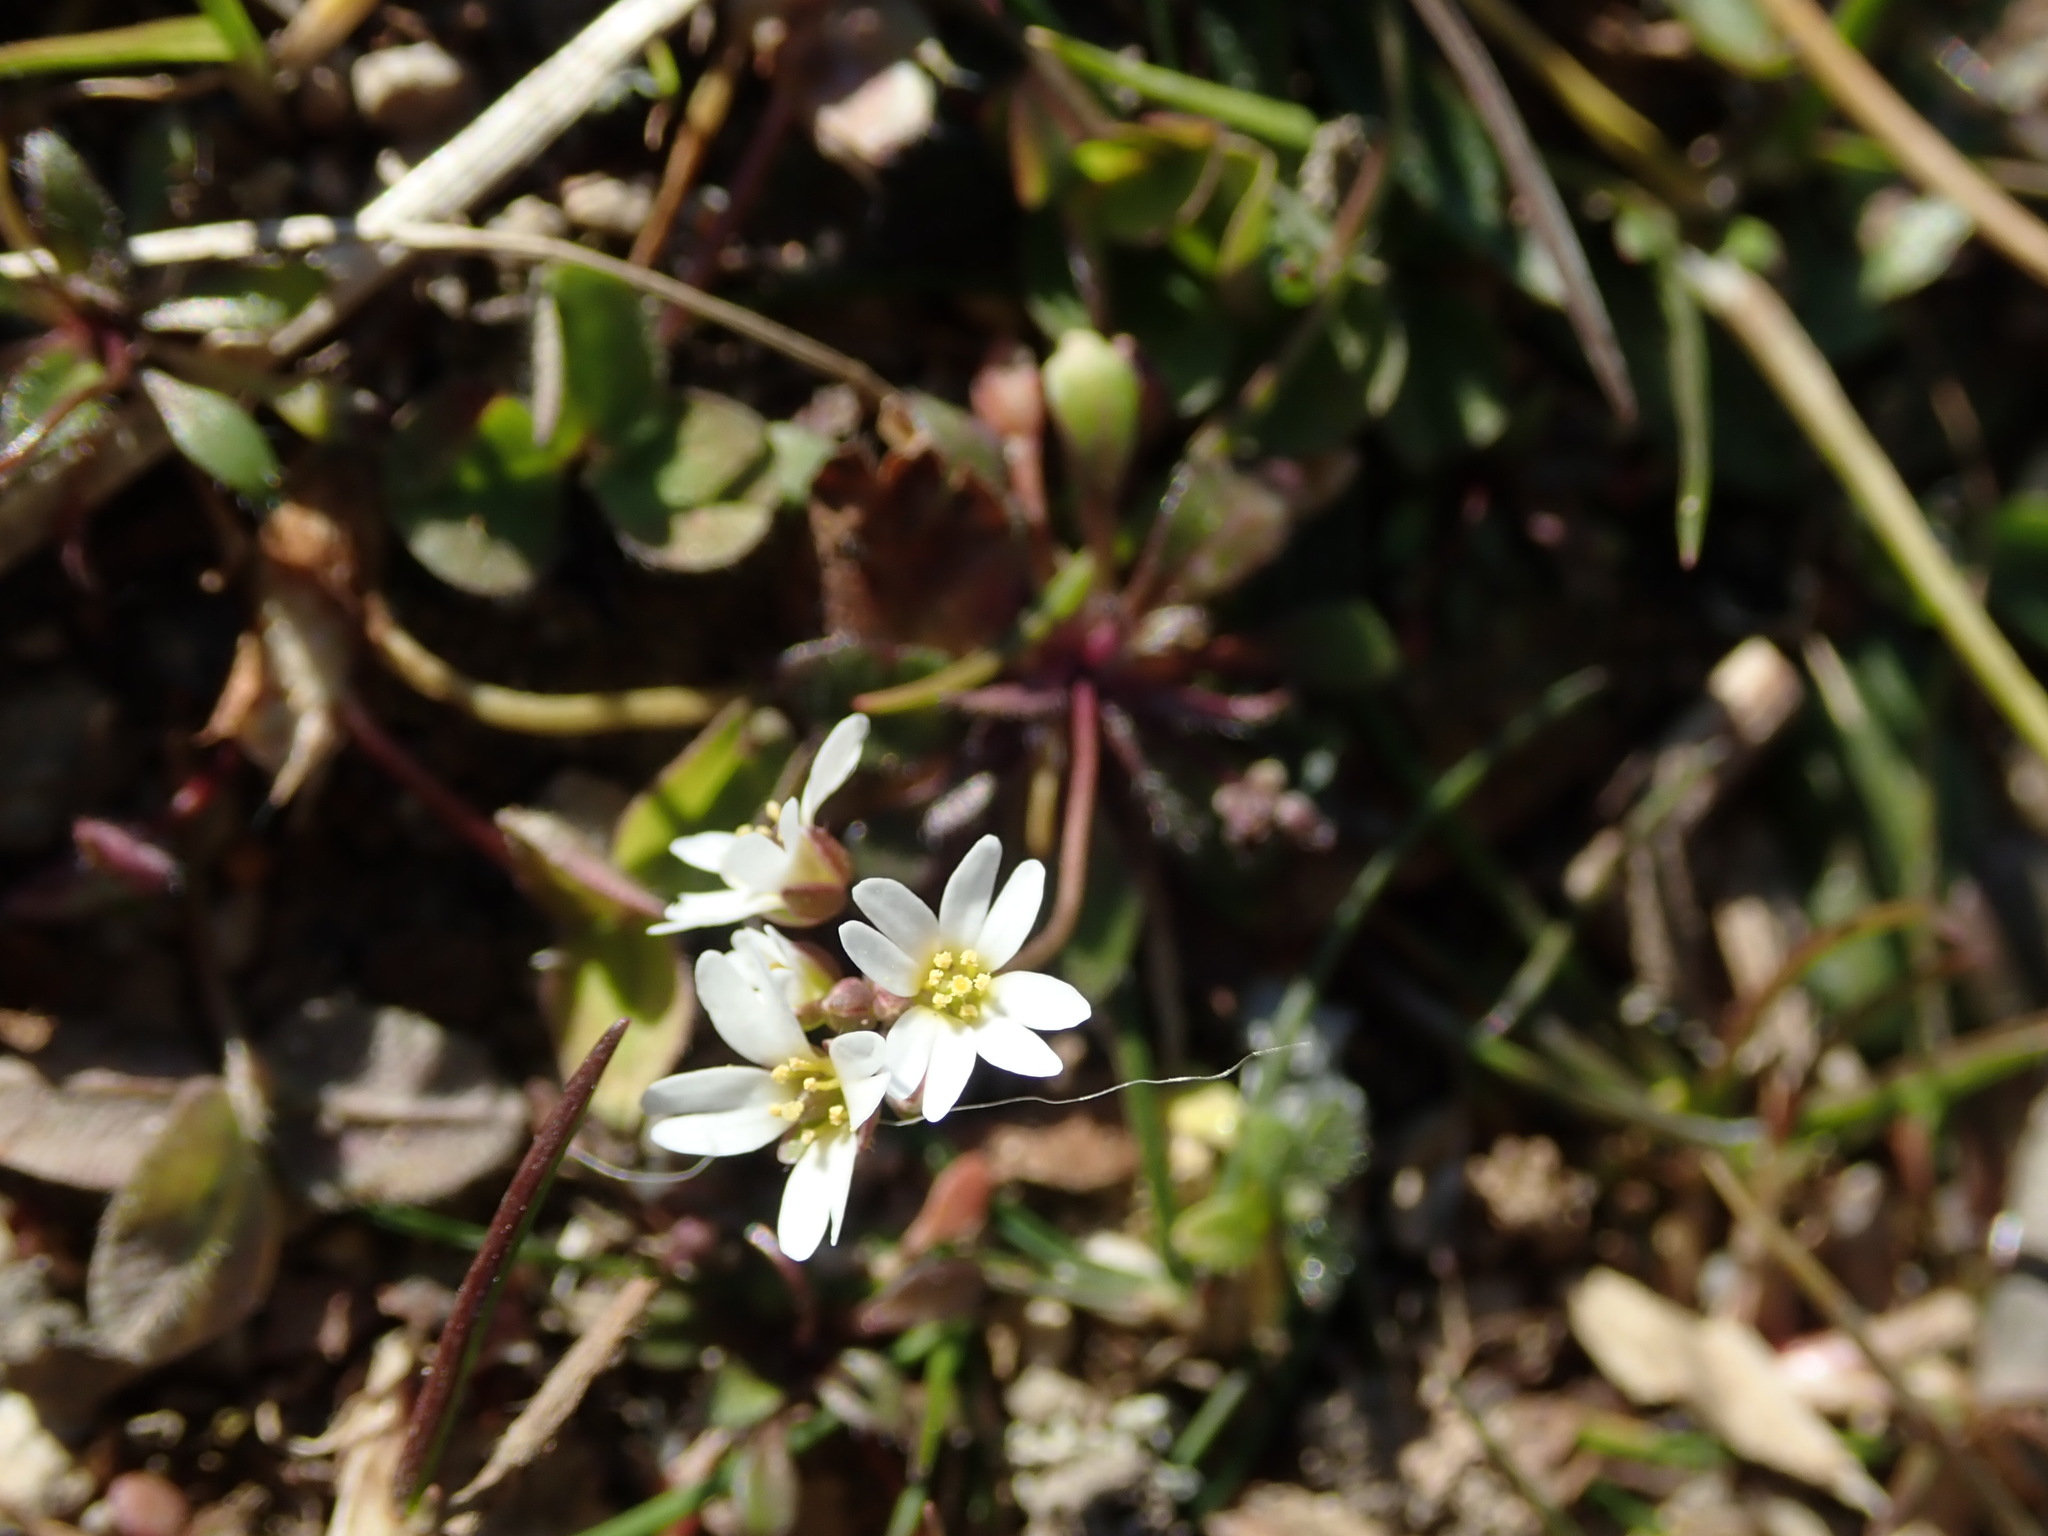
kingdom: Plantae
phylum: Tracheophyta
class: Magnoliopsida
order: Brassicales
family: Brassicaceae
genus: Draba
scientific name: Draba verna
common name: Spring draba
